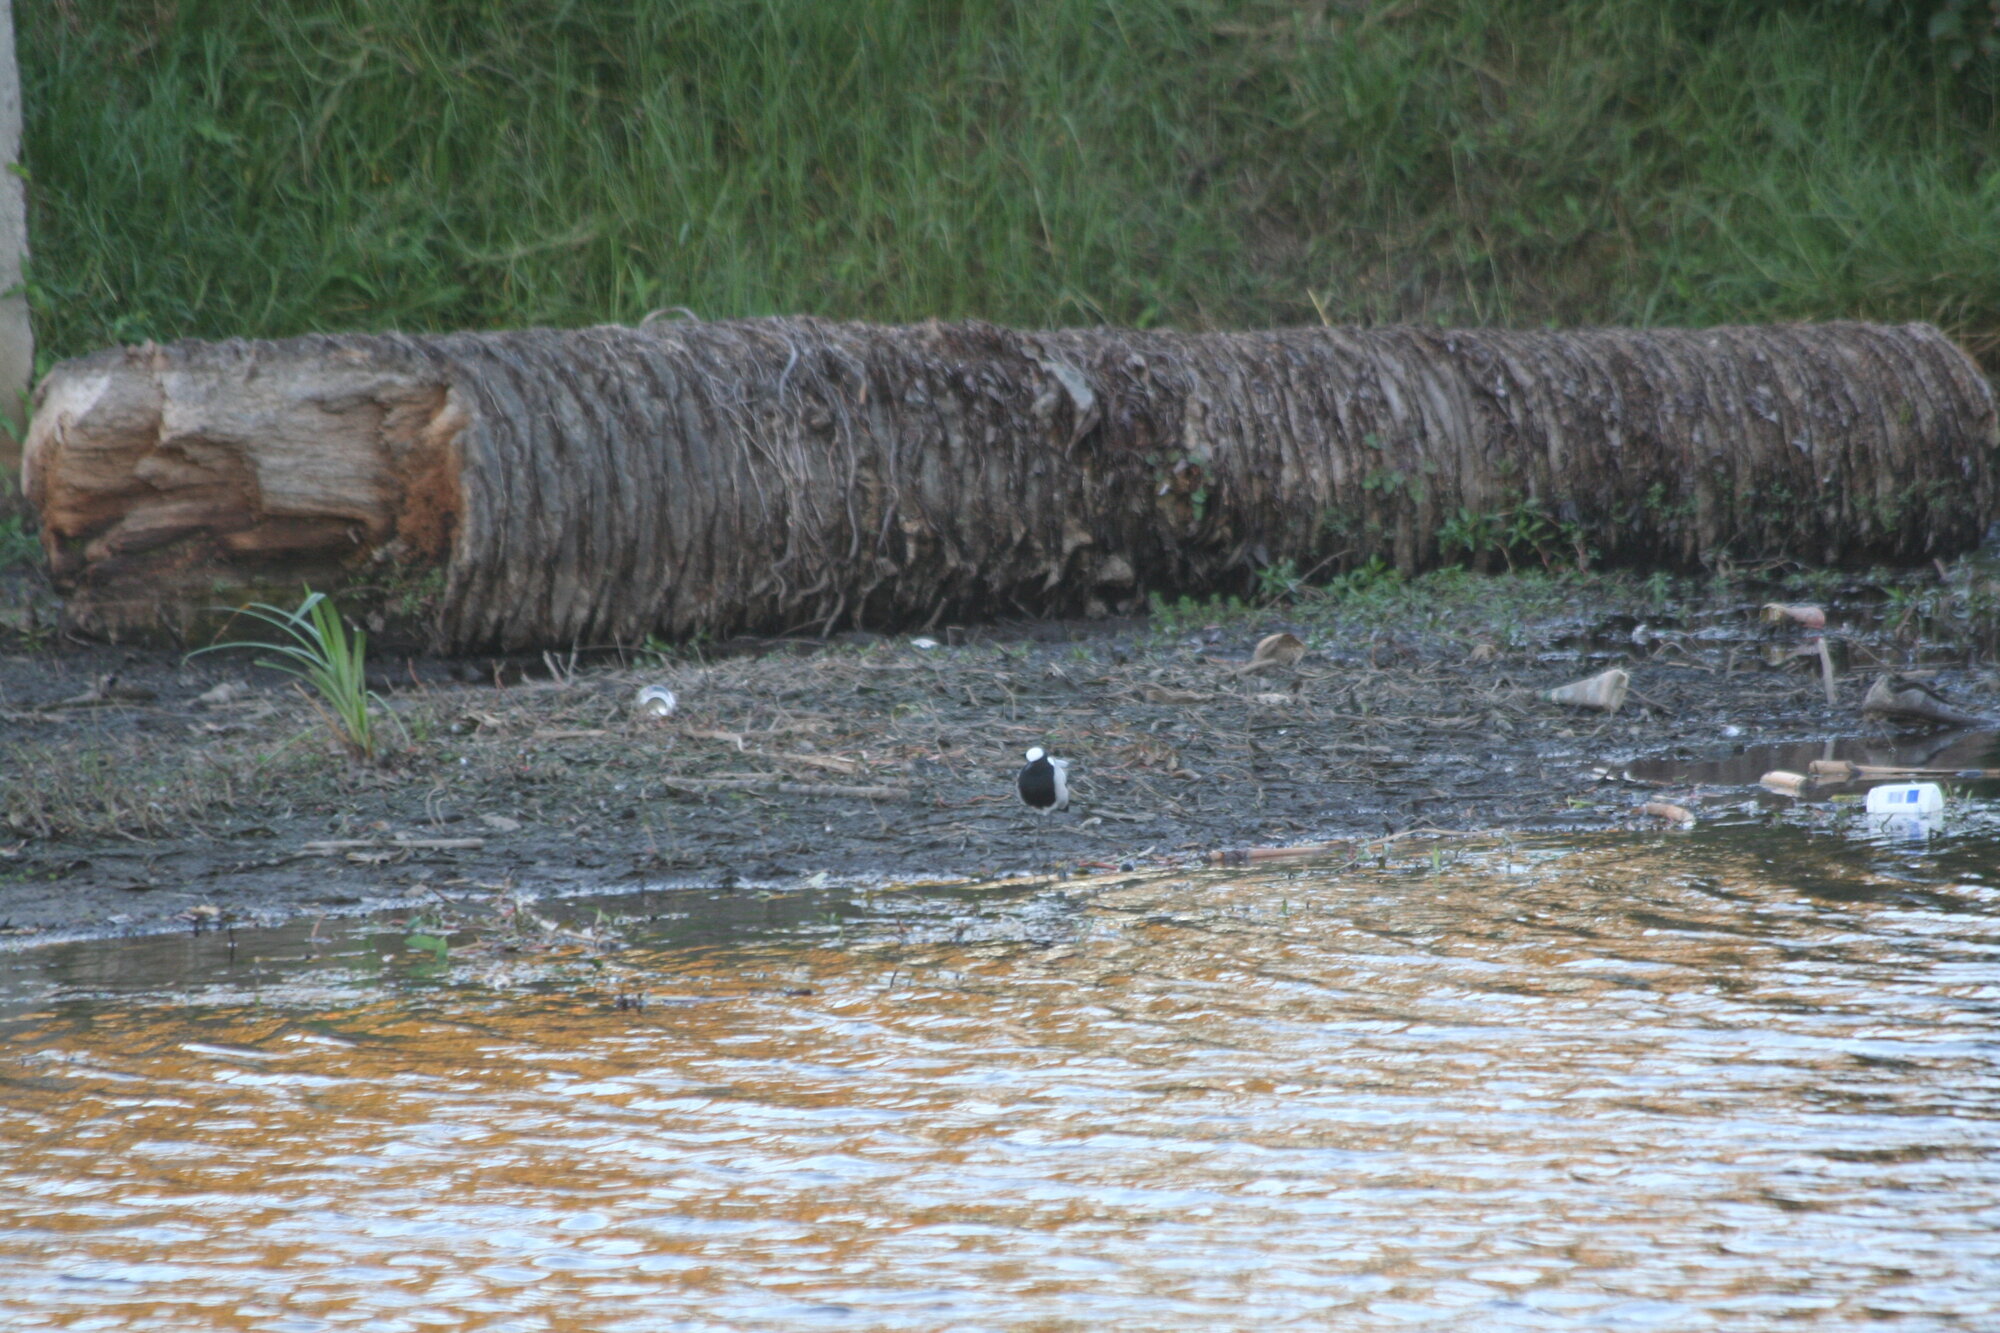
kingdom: Animalia
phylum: Chordata
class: Aves
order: Charadriiformes
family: Charadriidae
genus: Vanellus
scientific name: Vanellus armatus
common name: Blacksmith lapwing
